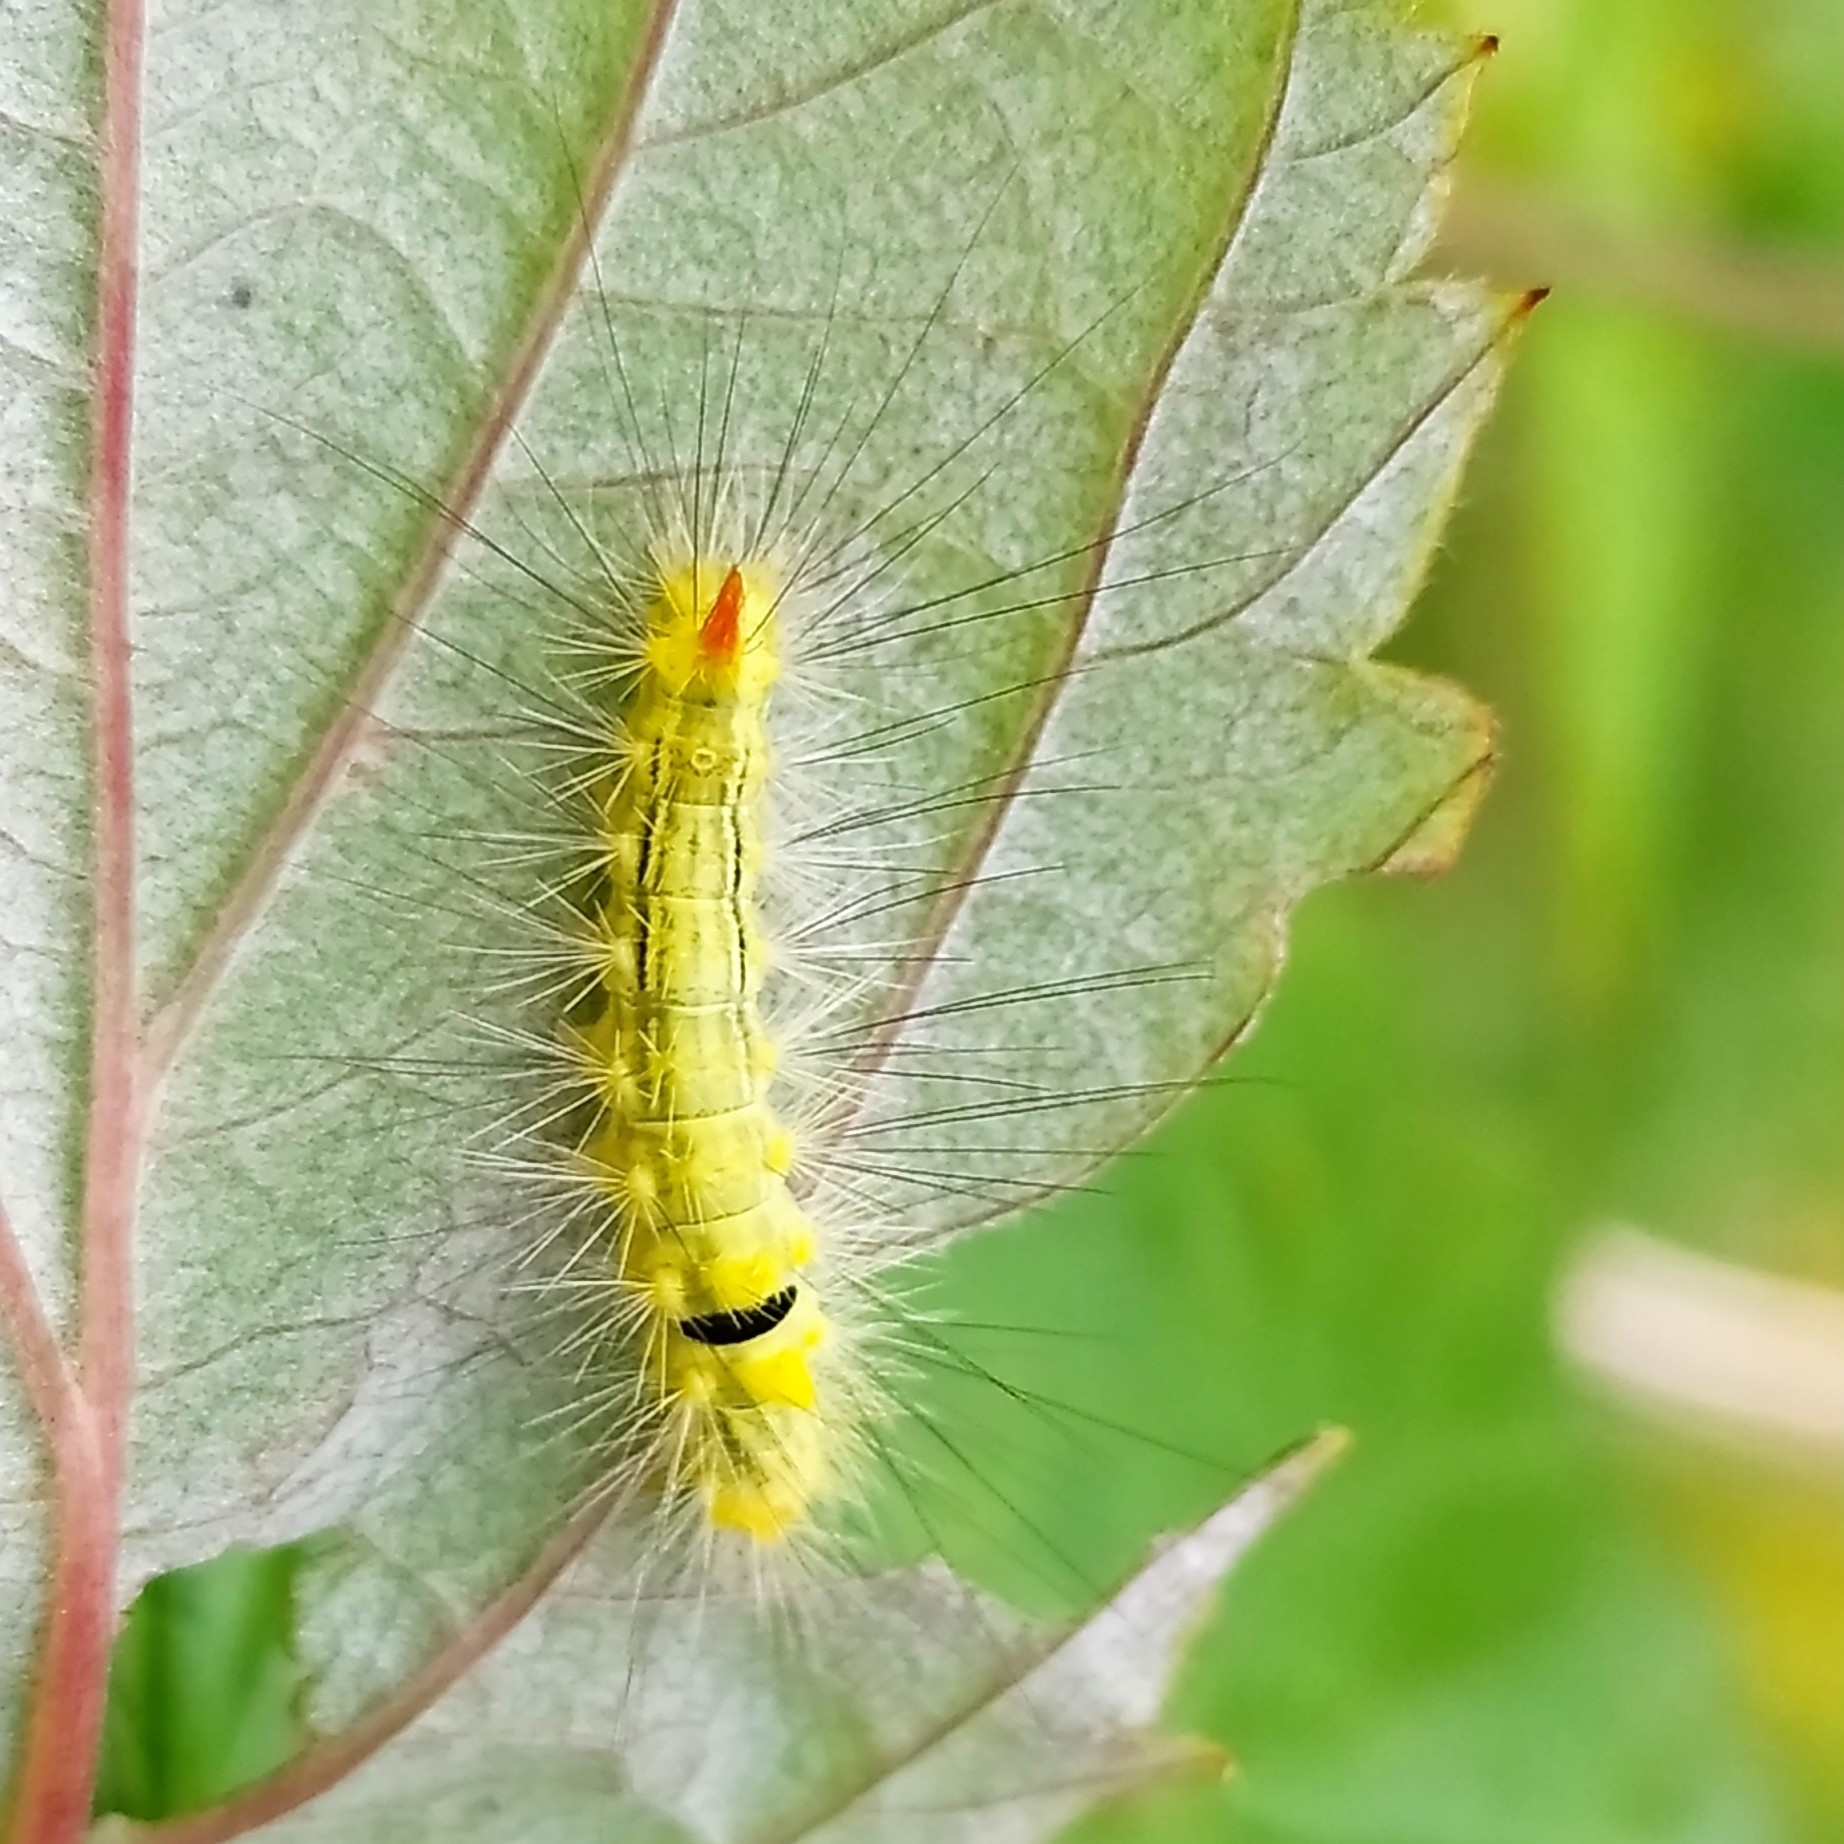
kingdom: Animalia
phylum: Arthropoda
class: Insecta
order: Lepidoptera
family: Erebidae
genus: Calliteara
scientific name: Calliteara pudibunda
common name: Pale tussock
